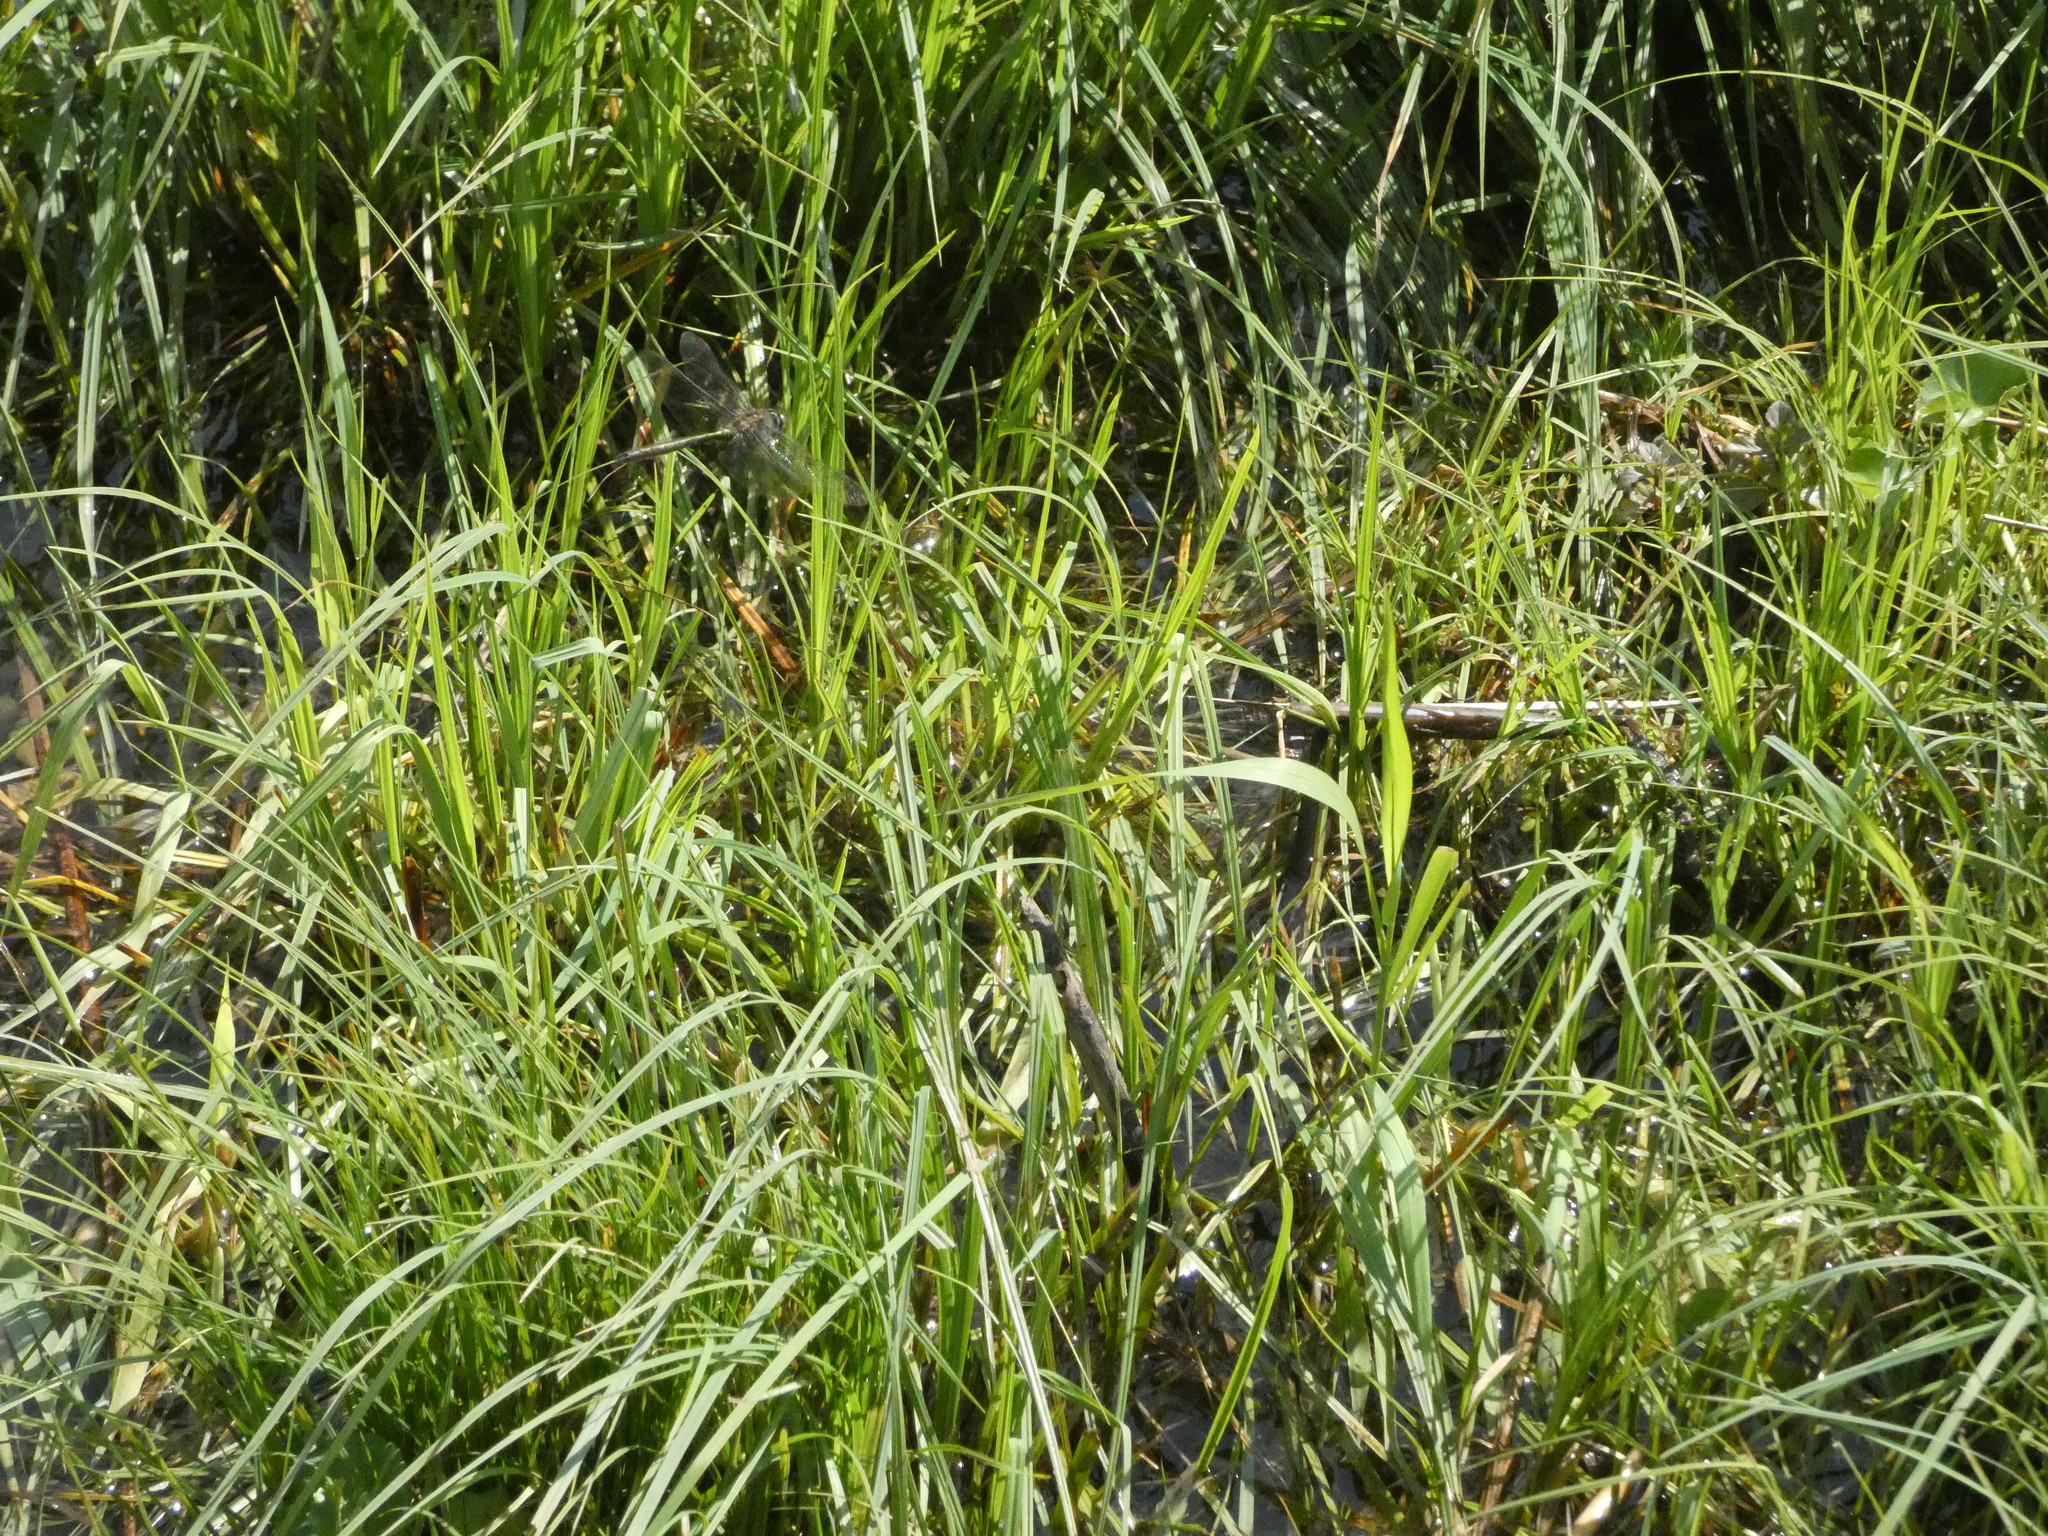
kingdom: Animalia
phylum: Arthropoda
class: Insecta
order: Odonata
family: Corduliidae
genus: Somatochlora
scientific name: Somatochlora metallica
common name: Brilliant emerald
